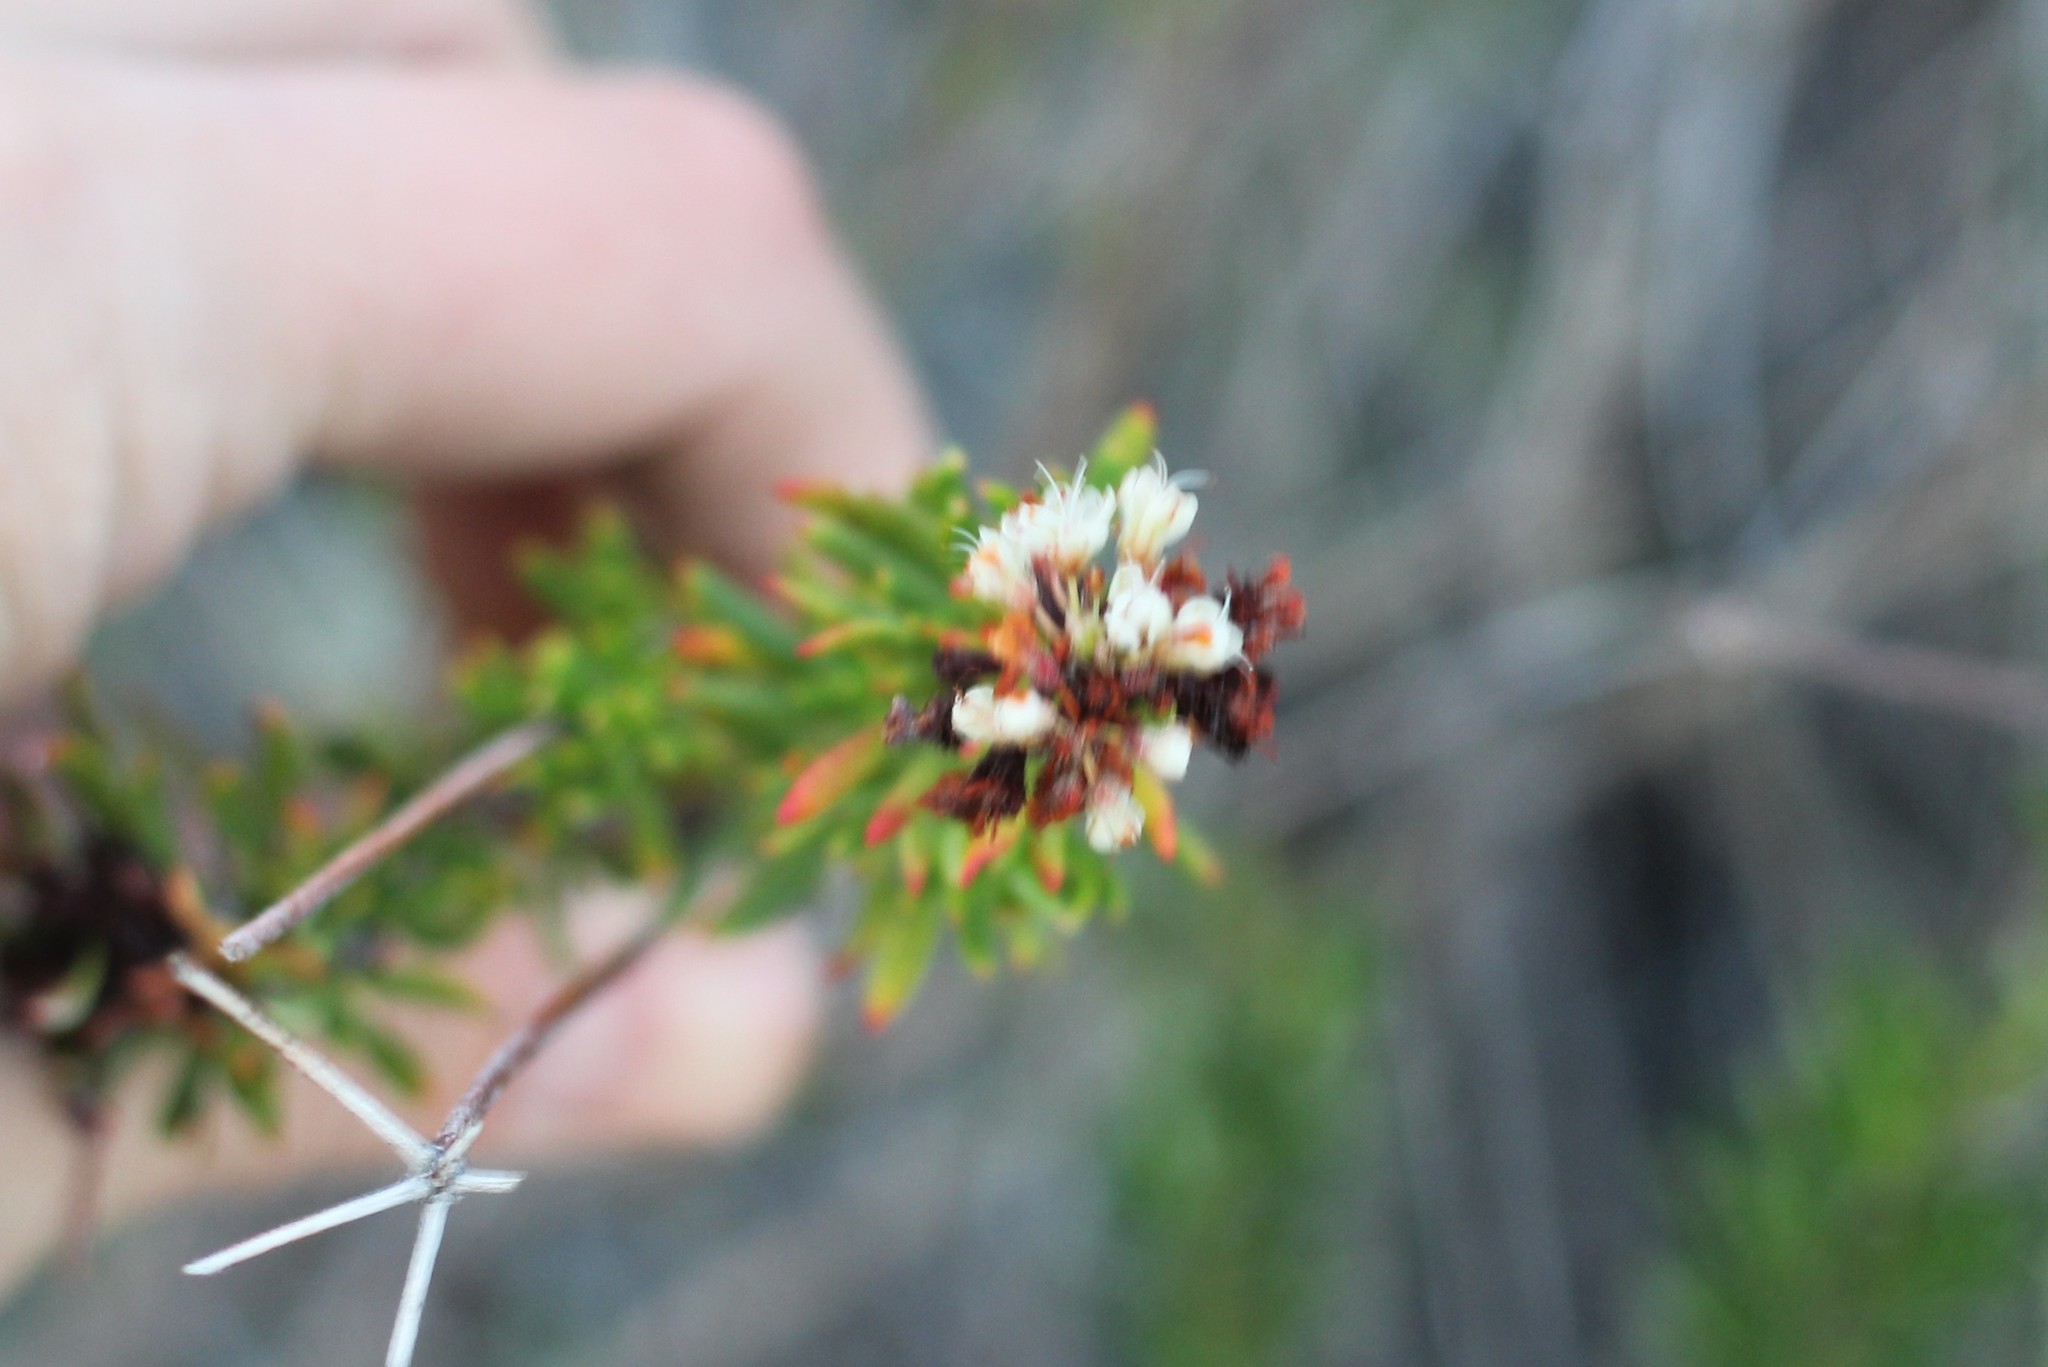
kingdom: Plantae
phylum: Tracheophyta
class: Magnoliopsida
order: Caryophyllales
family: Polygonaceae
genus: Eriogonum
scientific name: Eriogonum fasciculatum
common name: California wild buckwheat
